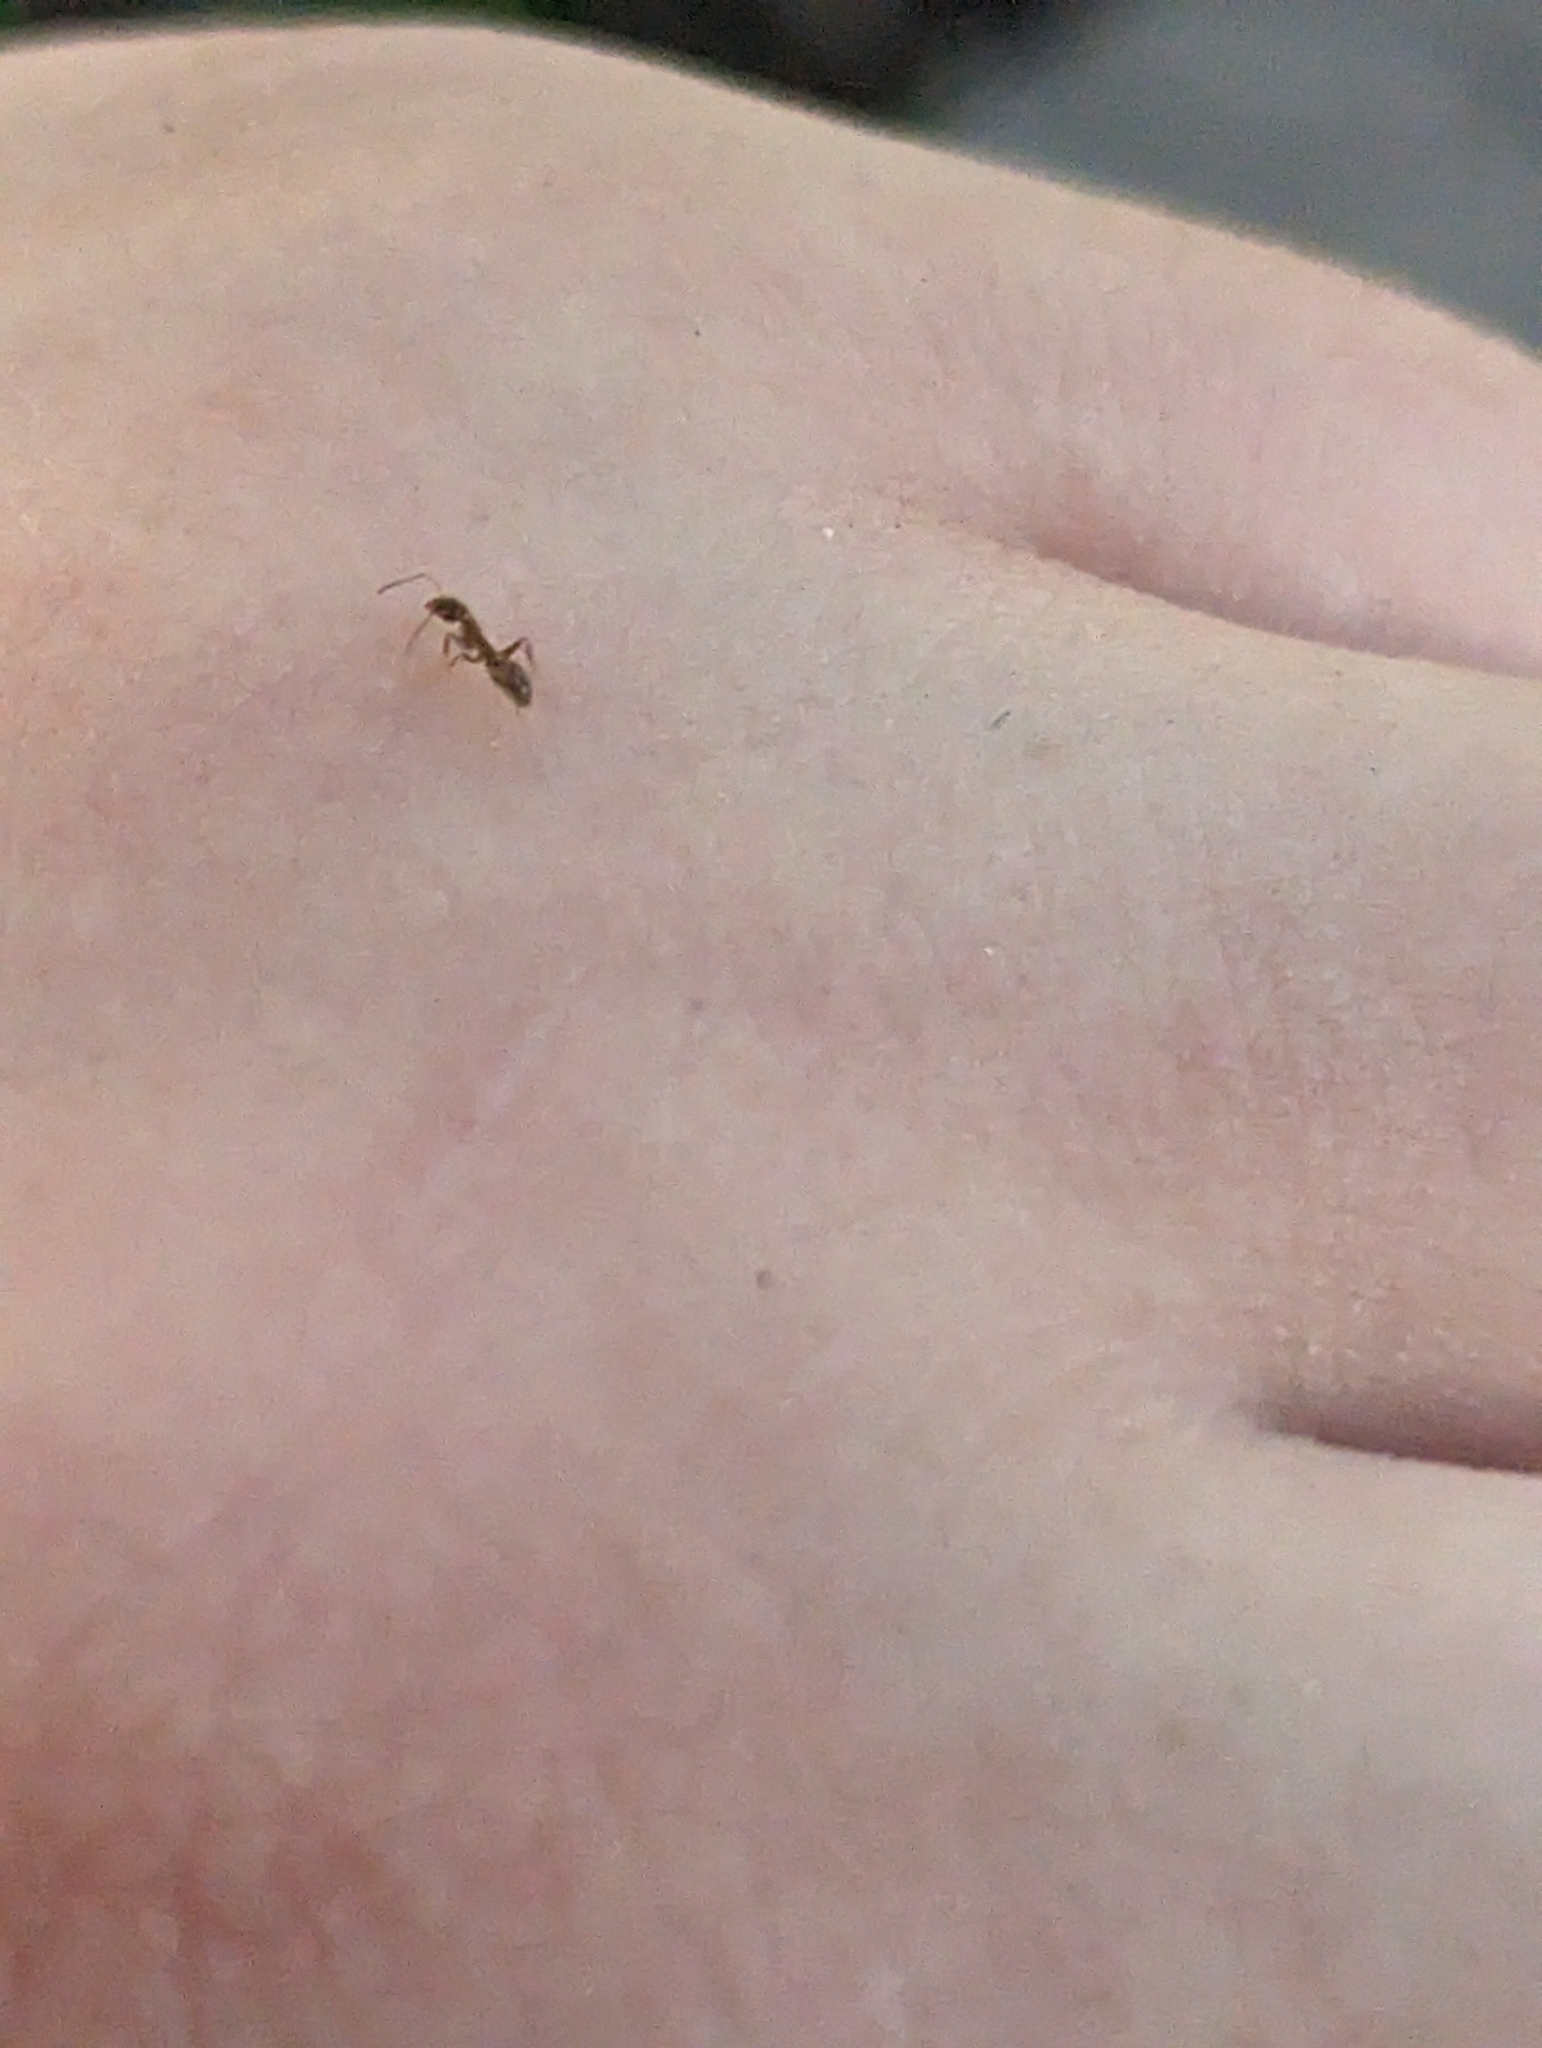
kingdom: Animalia
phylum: Arthropoda
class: Insecta
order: Hymenoptera
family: Formicidae
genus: Linepithema
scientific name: Linepithema humile
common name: Argentine ant
